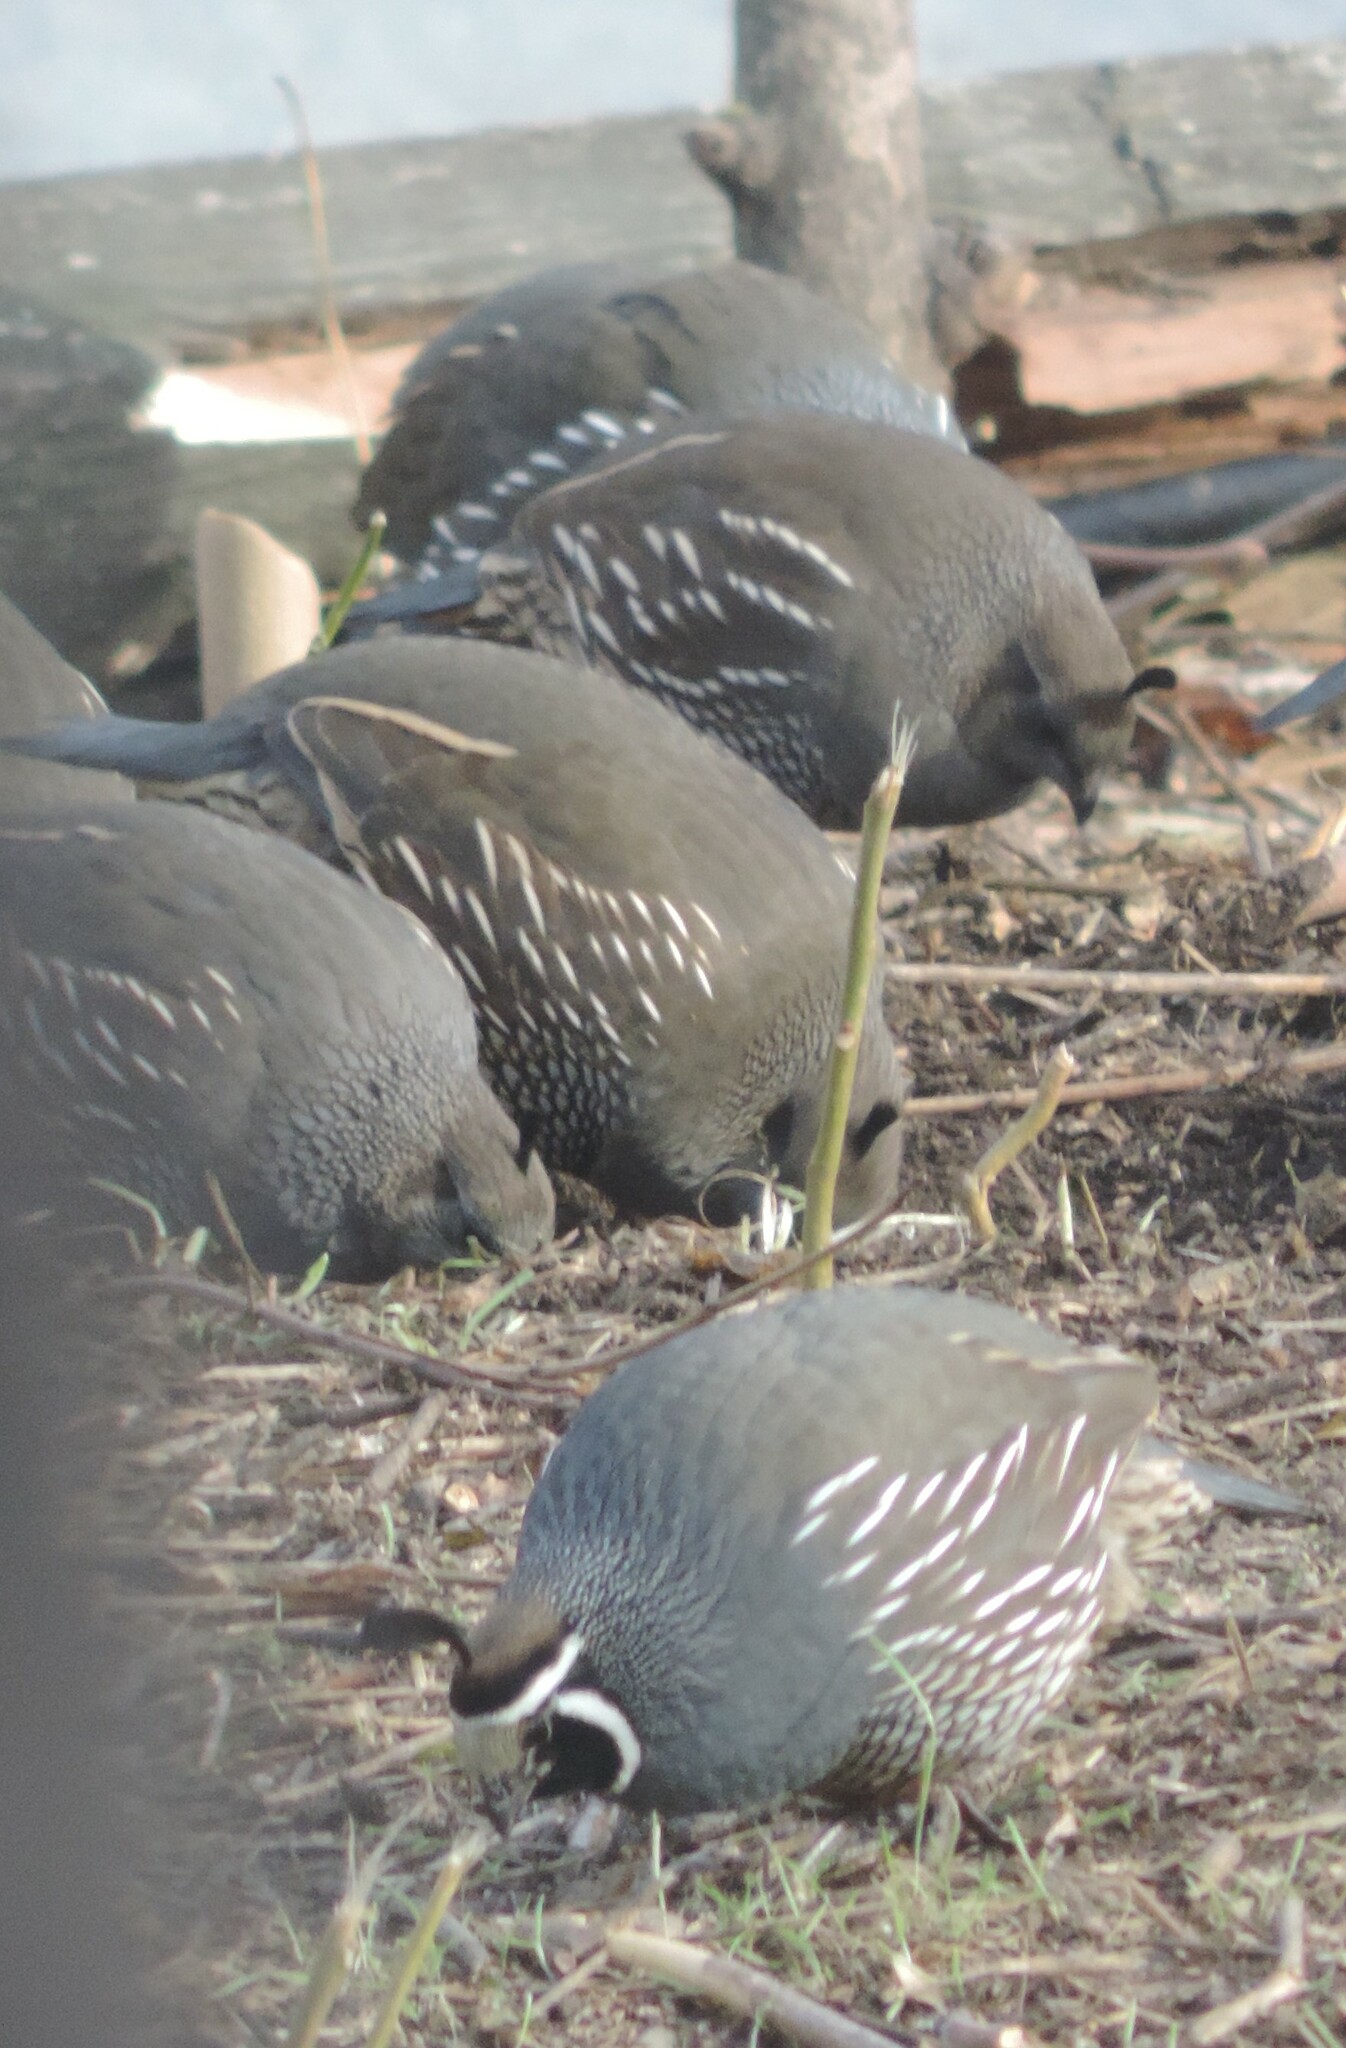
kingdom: Animalia
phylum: Chordata
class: Aves
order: Galliformes
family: Odontophoridae
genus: Callipepla
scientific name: Callipepla californica
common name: California quail
